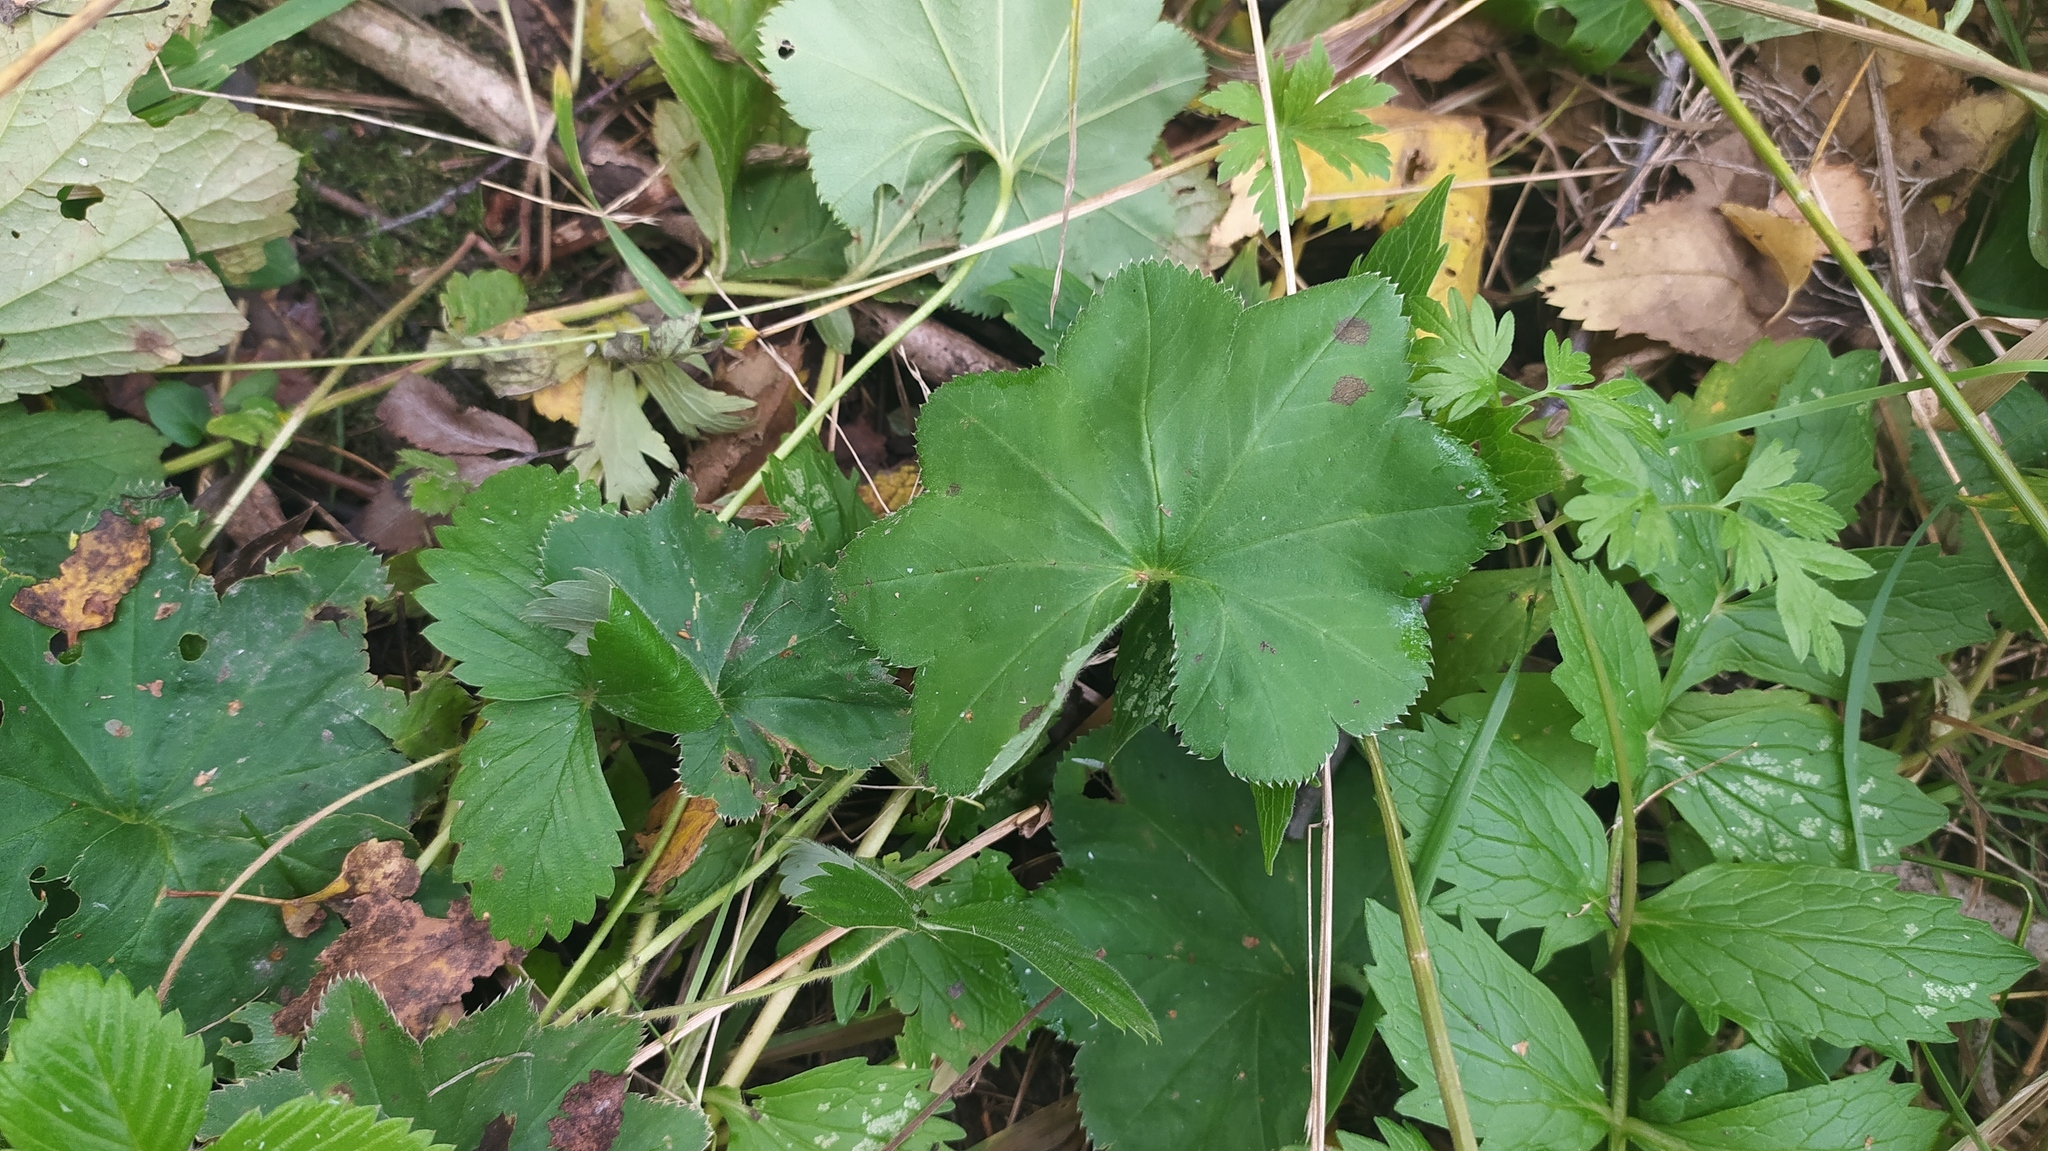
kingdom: Plantae
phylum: Tracheophyta
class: Magnoliopsida
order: Rosales
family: Rosaceae
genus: Alchemilla
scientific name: Alchemilla lindbergiana
